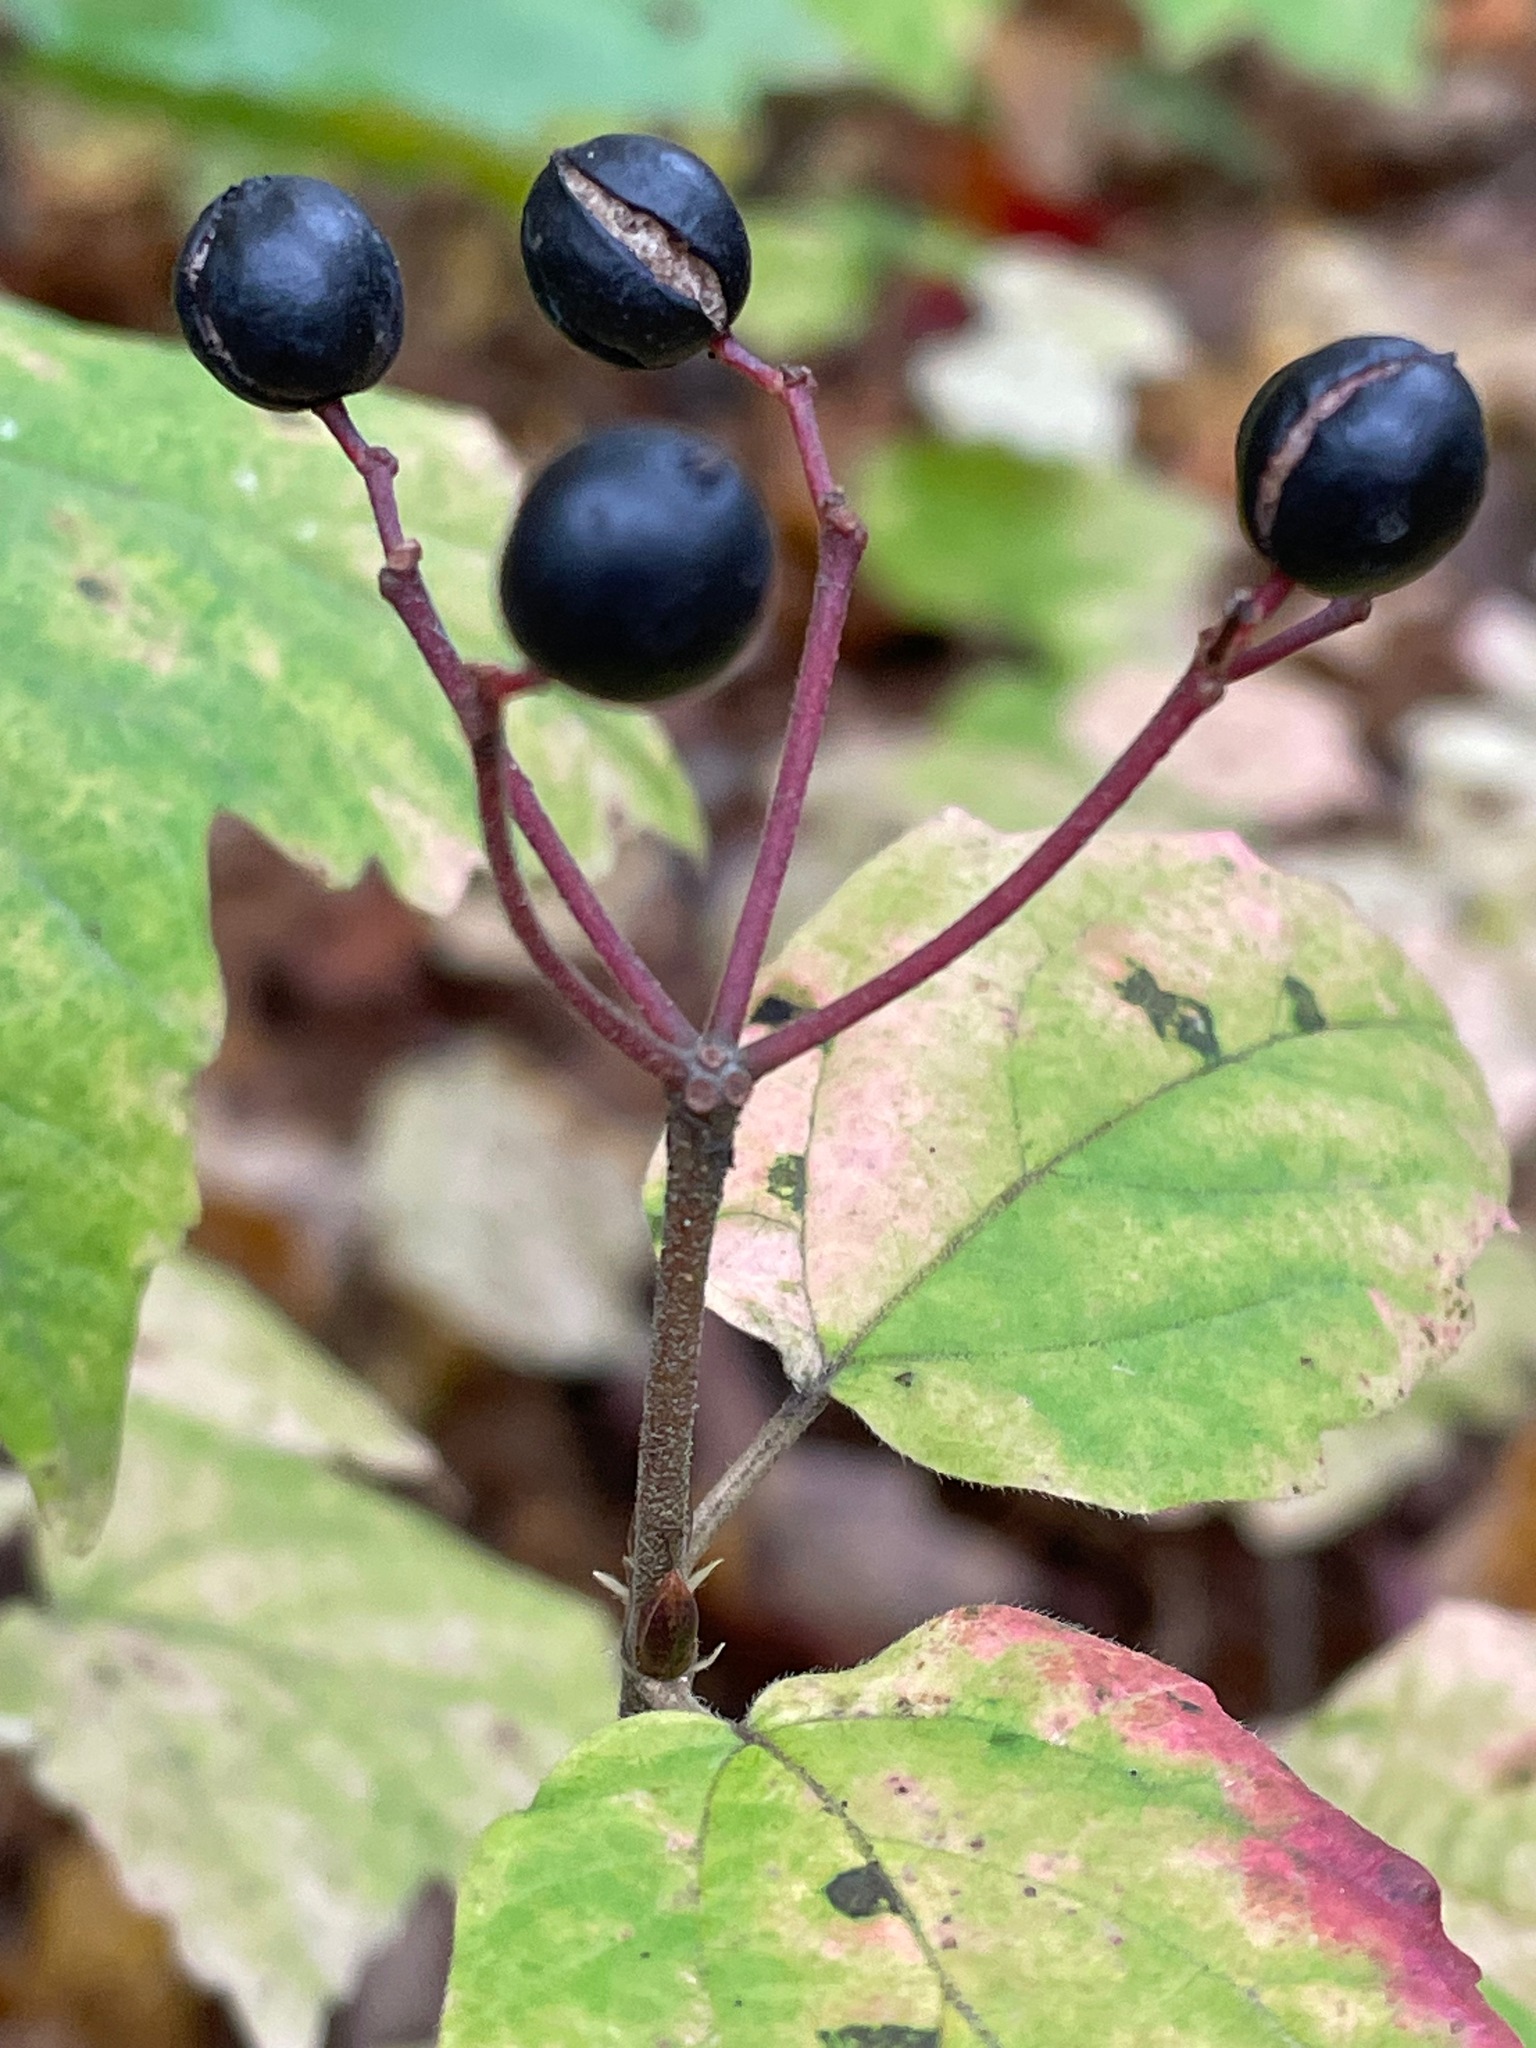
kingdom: Plantae
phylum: Tracheophyta
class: Magnoliopsida
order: Dipsacales
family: Viburnaceae
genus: Viburnum
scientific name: Viburnum acerifolium
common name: Dockmackie
